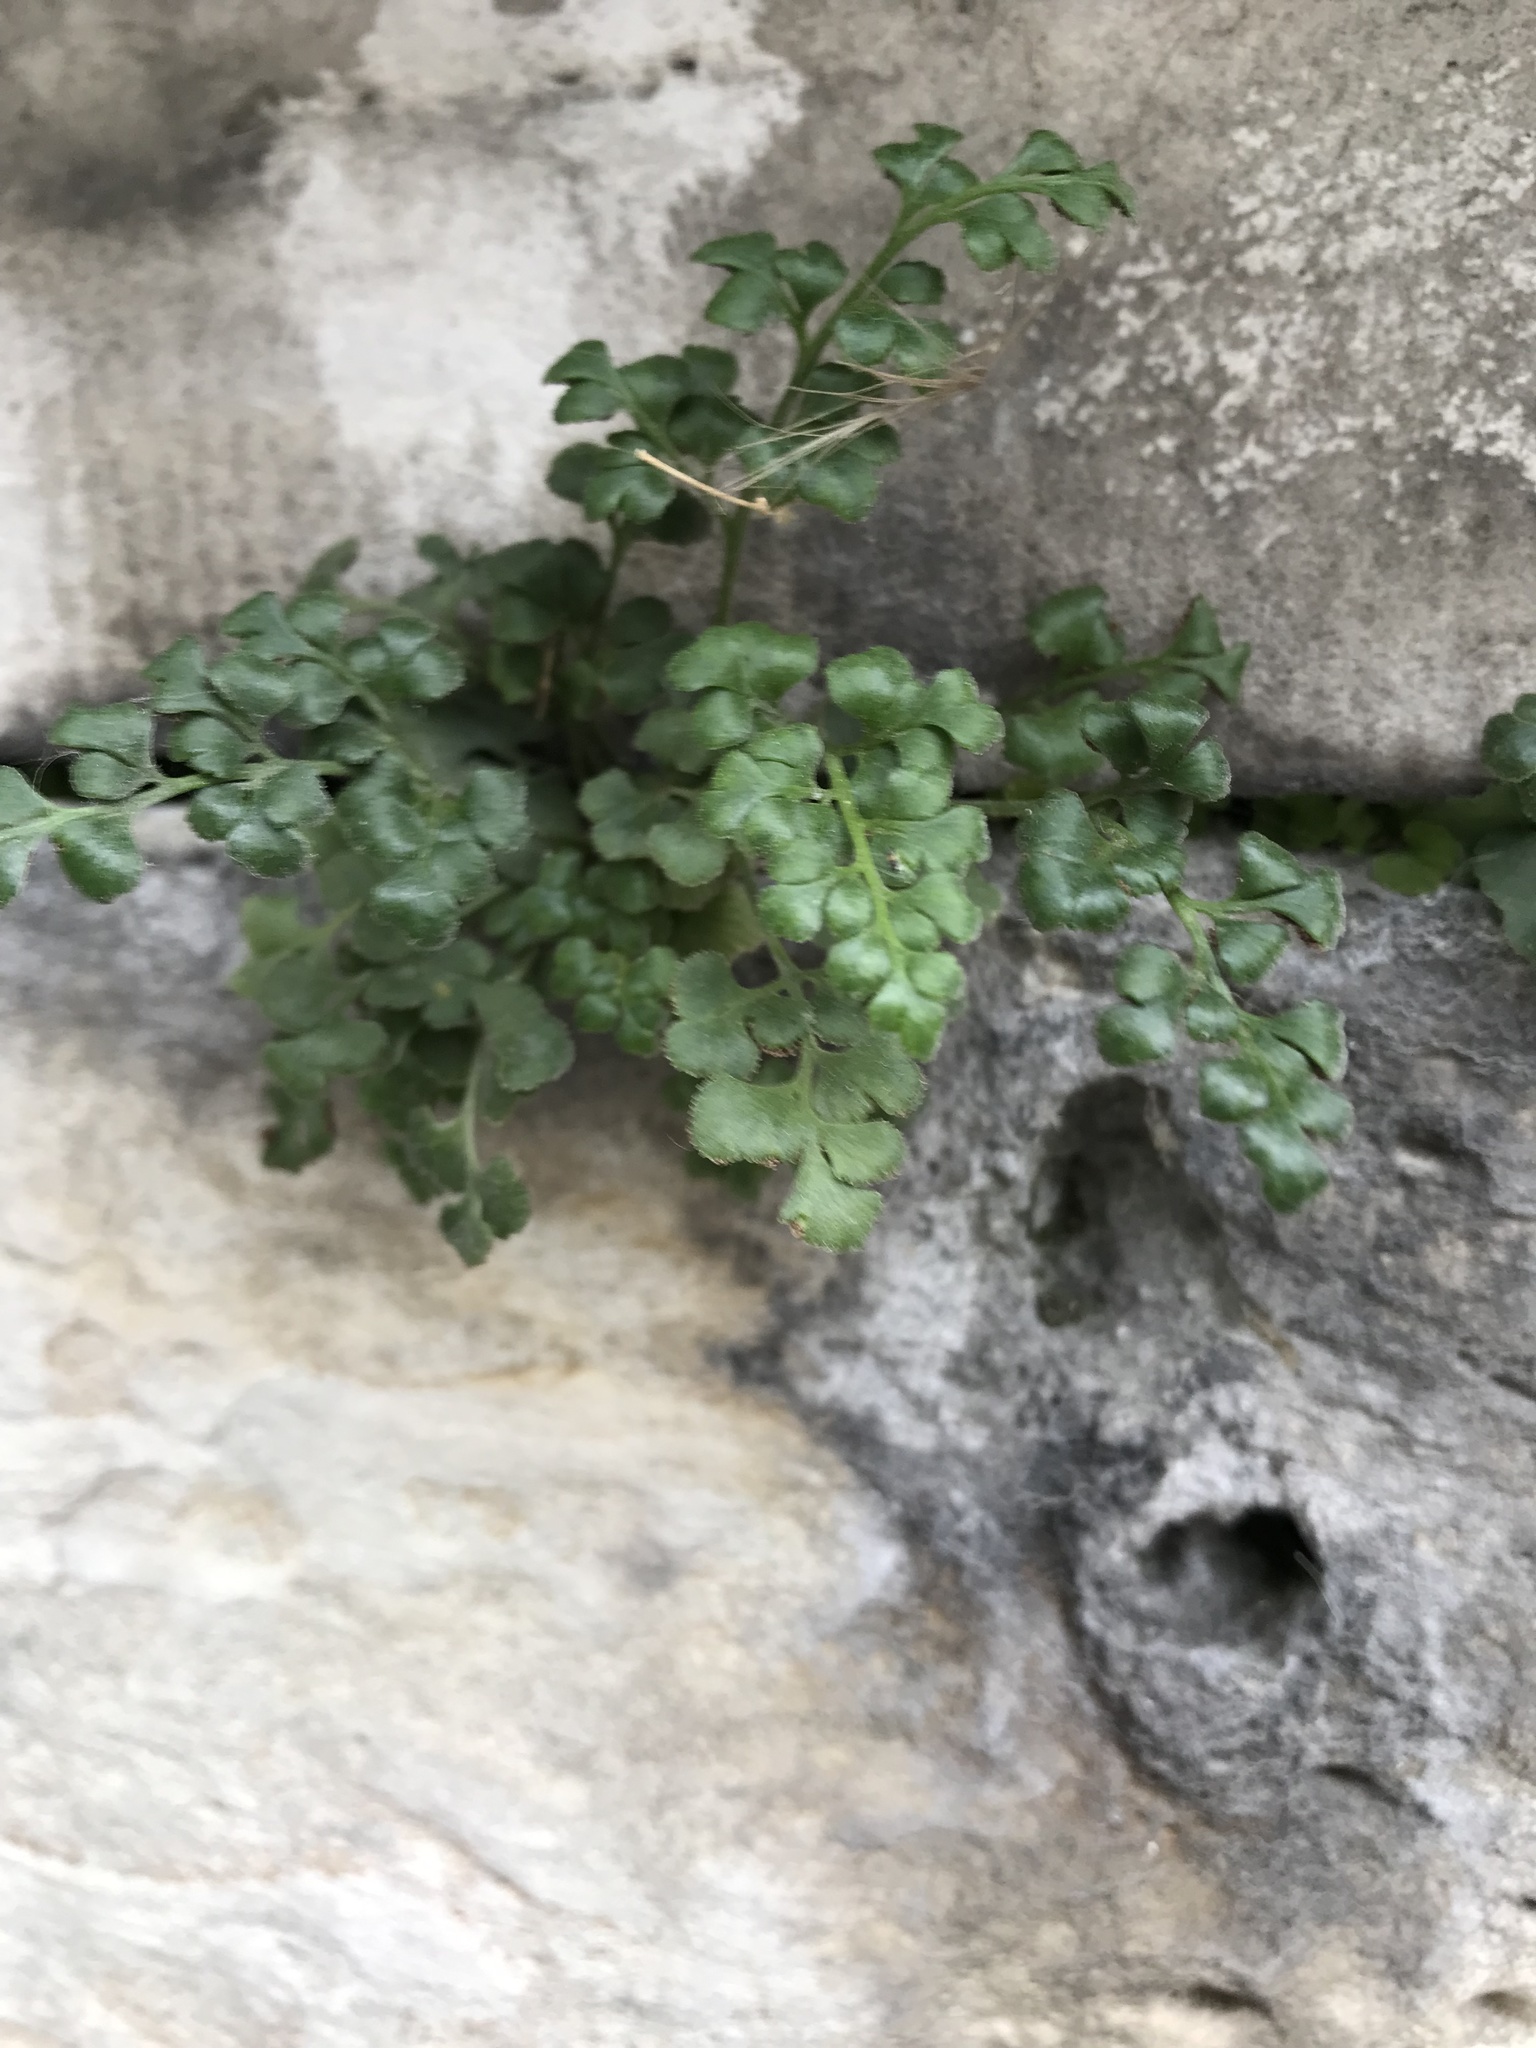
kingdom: Plantae
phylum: Tracheophyta
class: Polypodiopsida
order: Polypodiales
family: Aspleniaceae
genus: Asplenium
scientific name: Asplenium ruta-muraria
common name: Wall-rue
